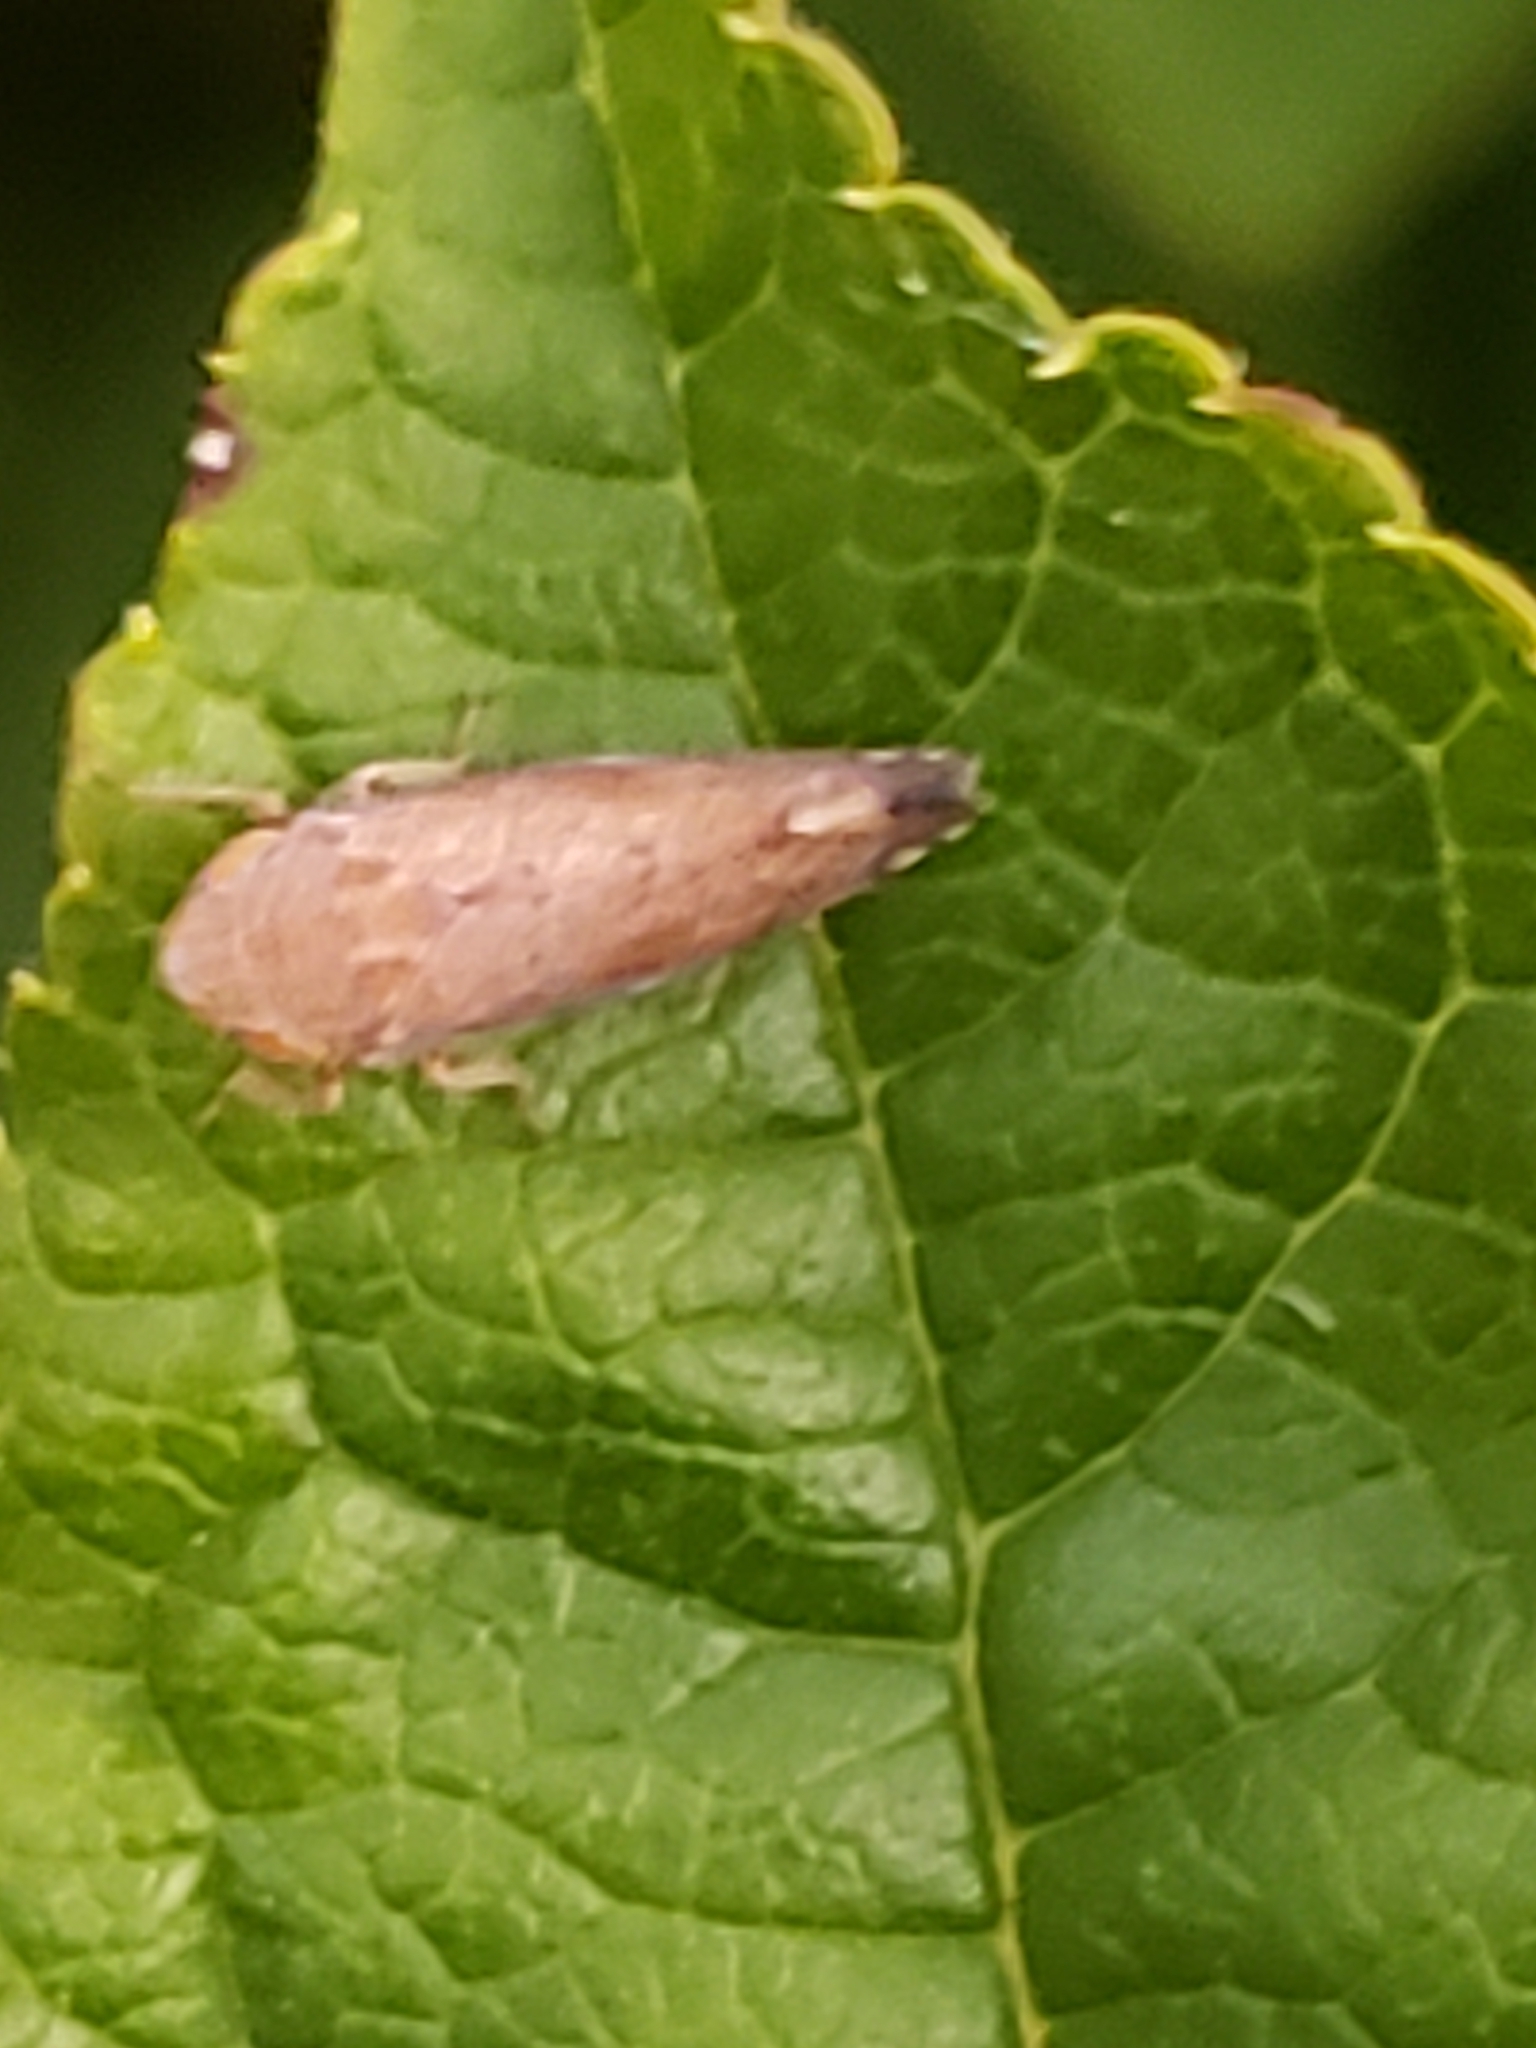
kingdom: Animalia
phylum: Arthropoda
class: Insecta
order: Hemiptera
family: Cicadellidae
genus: Fieberiella
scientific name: Fieberiella florii
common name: Flor’s leafhopper
